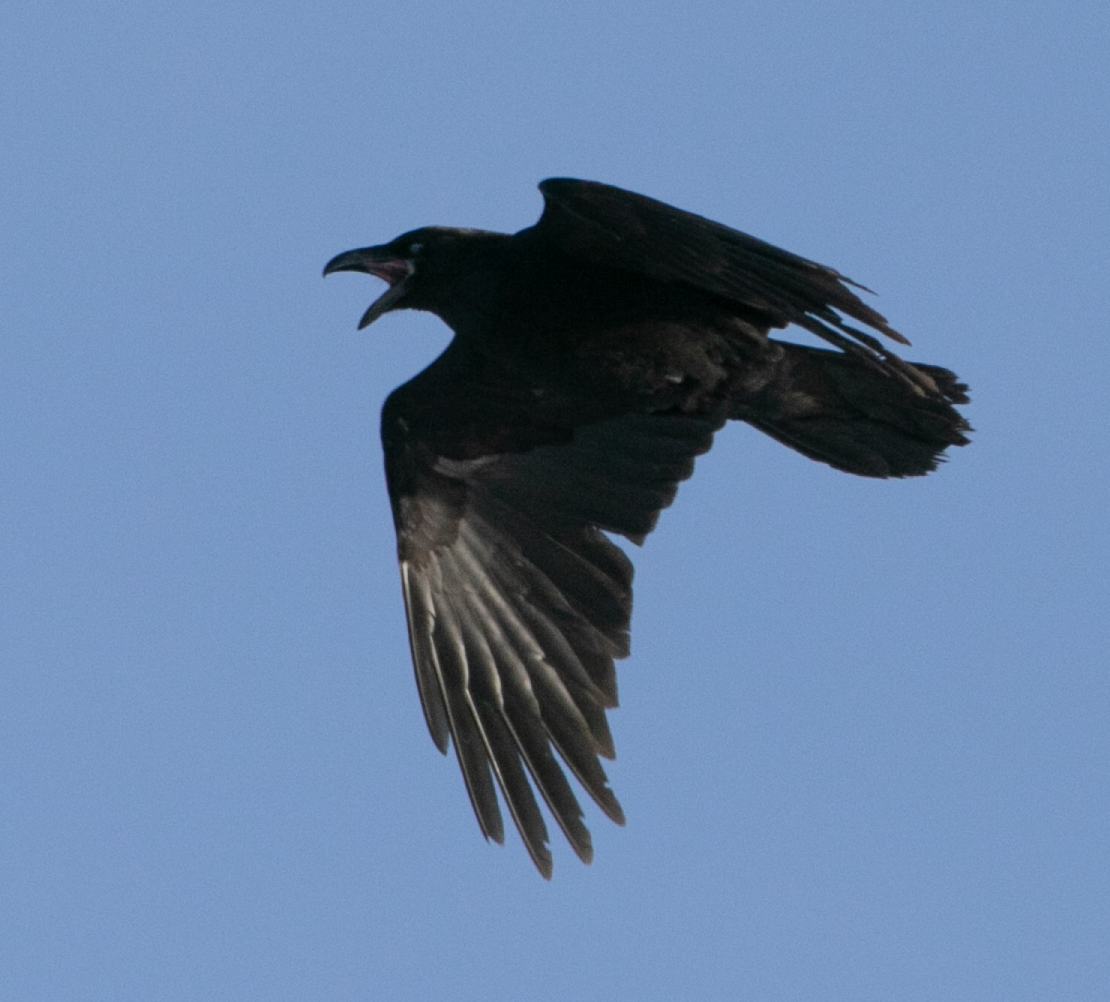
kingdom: Animalia
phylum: Chordata
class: Aves
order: Passeriformes
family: Corvidae
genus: Corvus
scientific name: Corvus corax
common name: Common raven
